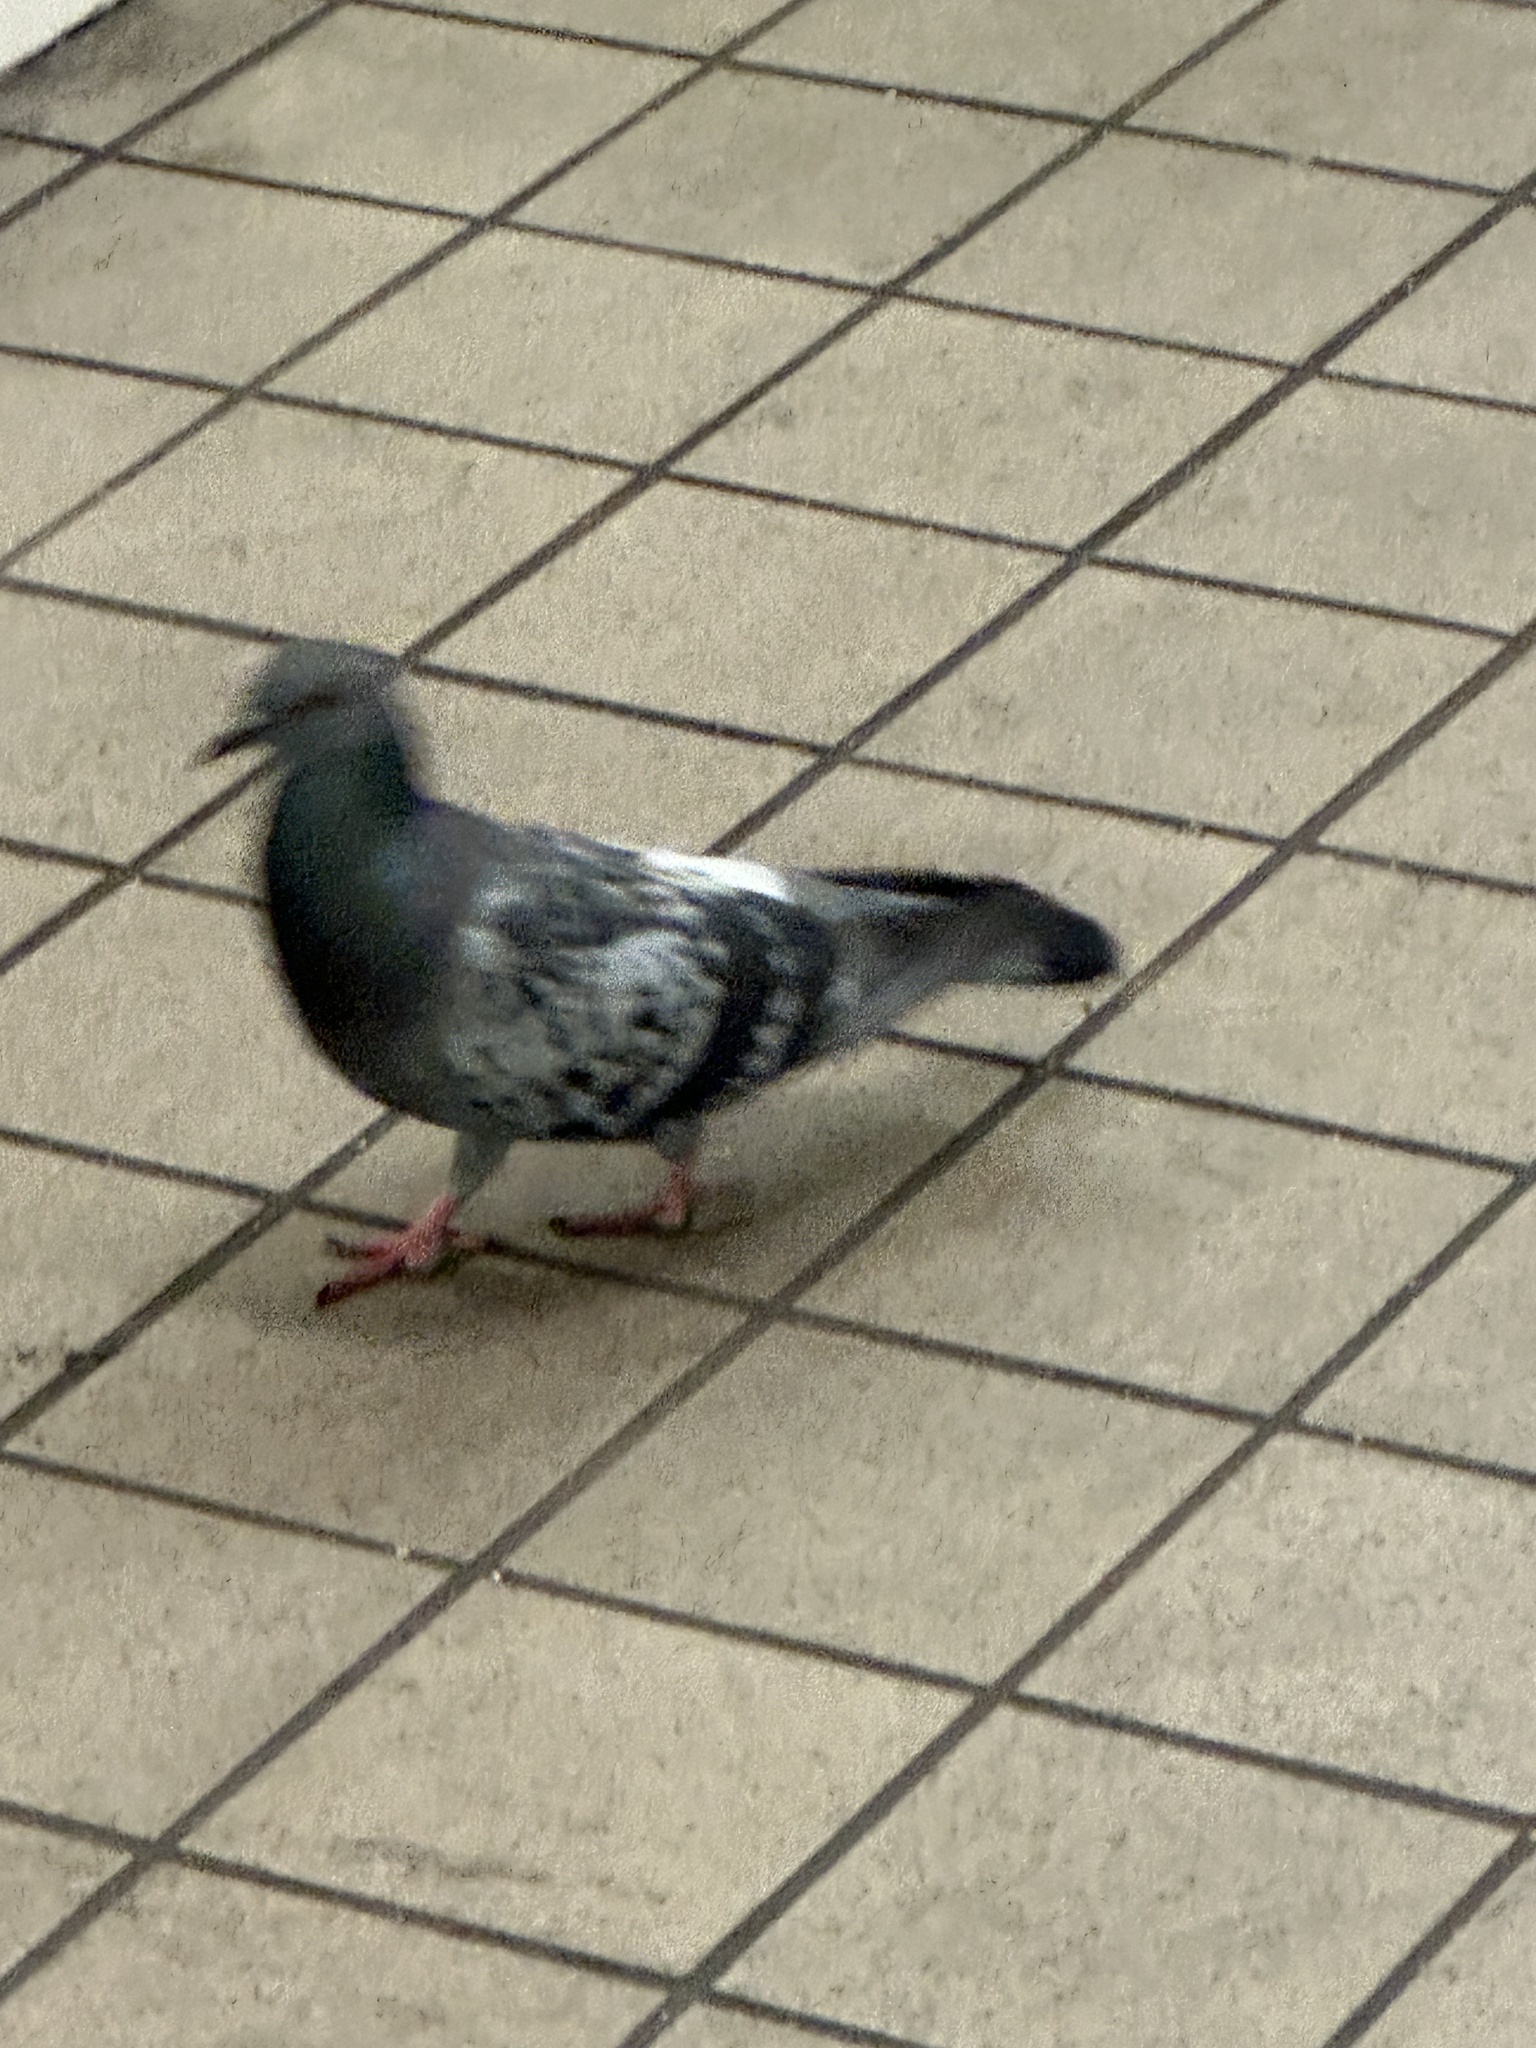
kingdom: Animalia
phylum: Chordata
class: Aves
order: Columbiformes
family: Columbidae
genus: Columba
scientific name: Columba livia
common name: Rock pigeon
